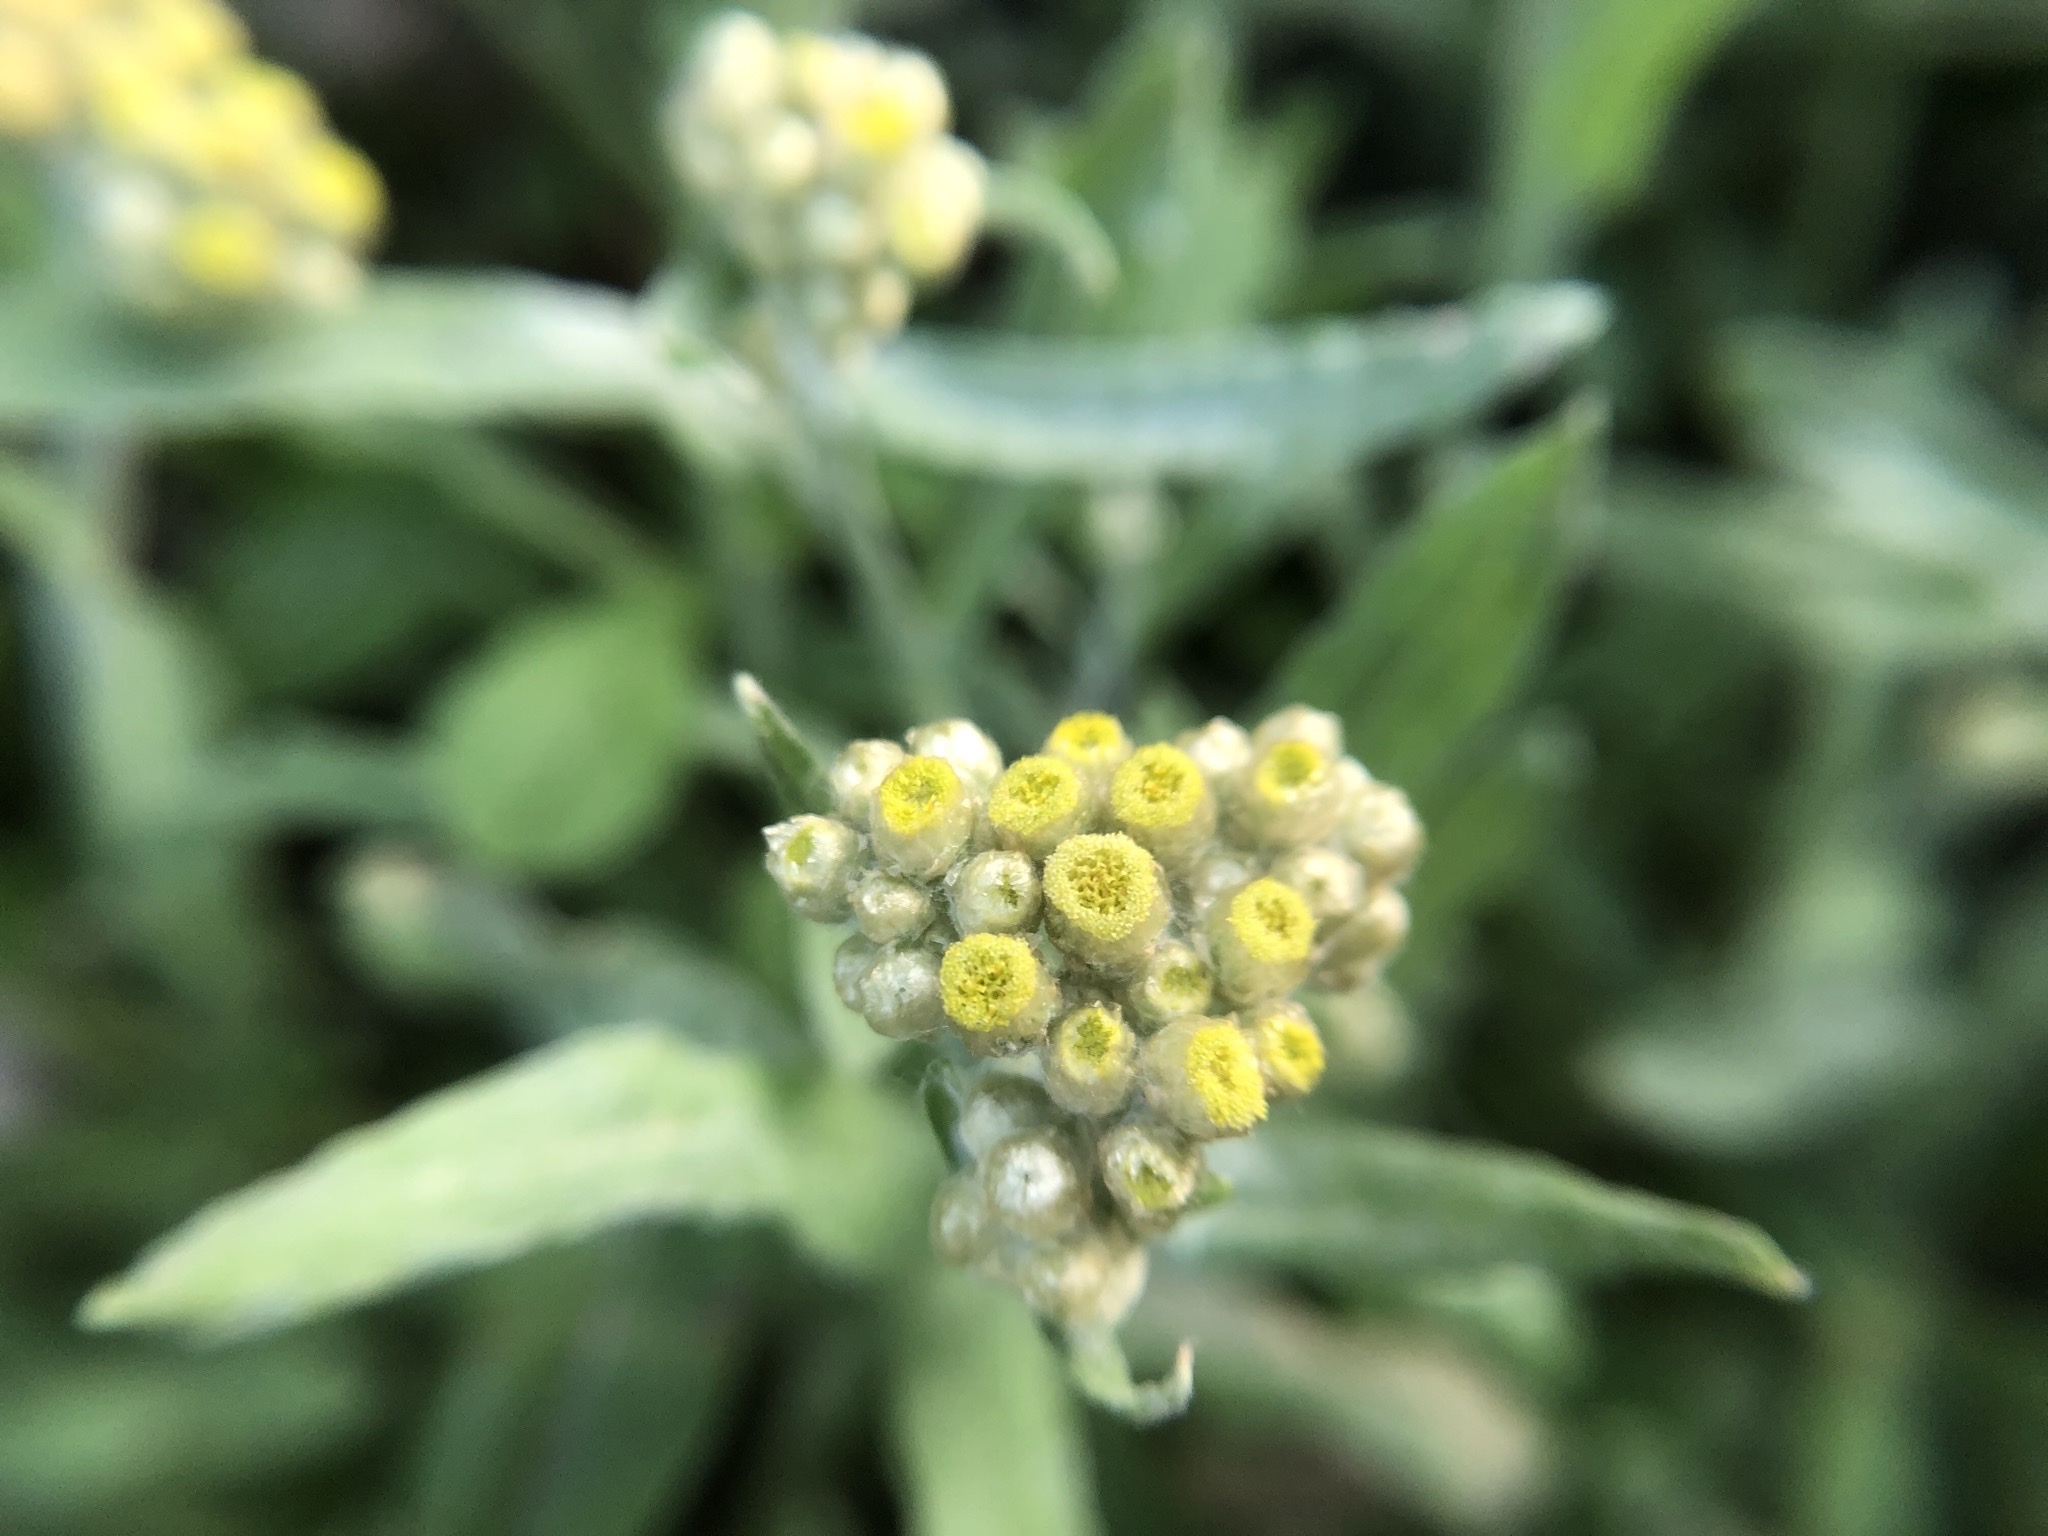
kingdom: Plantae
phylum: Tracheophyta
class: Magnoliopsida
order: Asterales
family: Asteraceae
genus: Pseudognaphalium
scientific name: Pseudognaphalium affine
